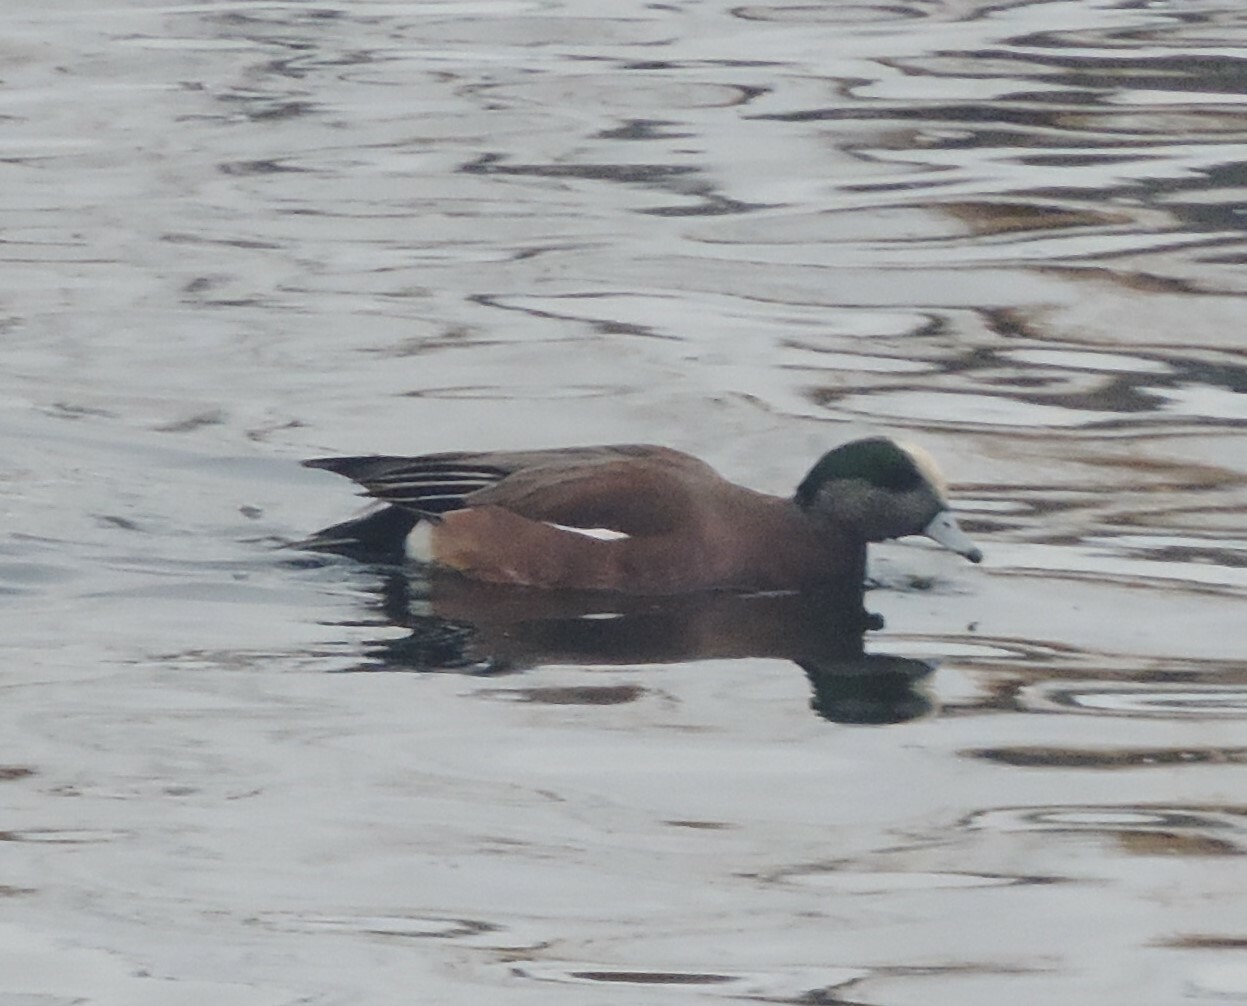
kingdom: Animalia
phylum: Chordata
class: Aves
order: Anseriformes
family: Anatidae
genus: Mareca
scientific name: Mareca americana
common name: American wigeon
